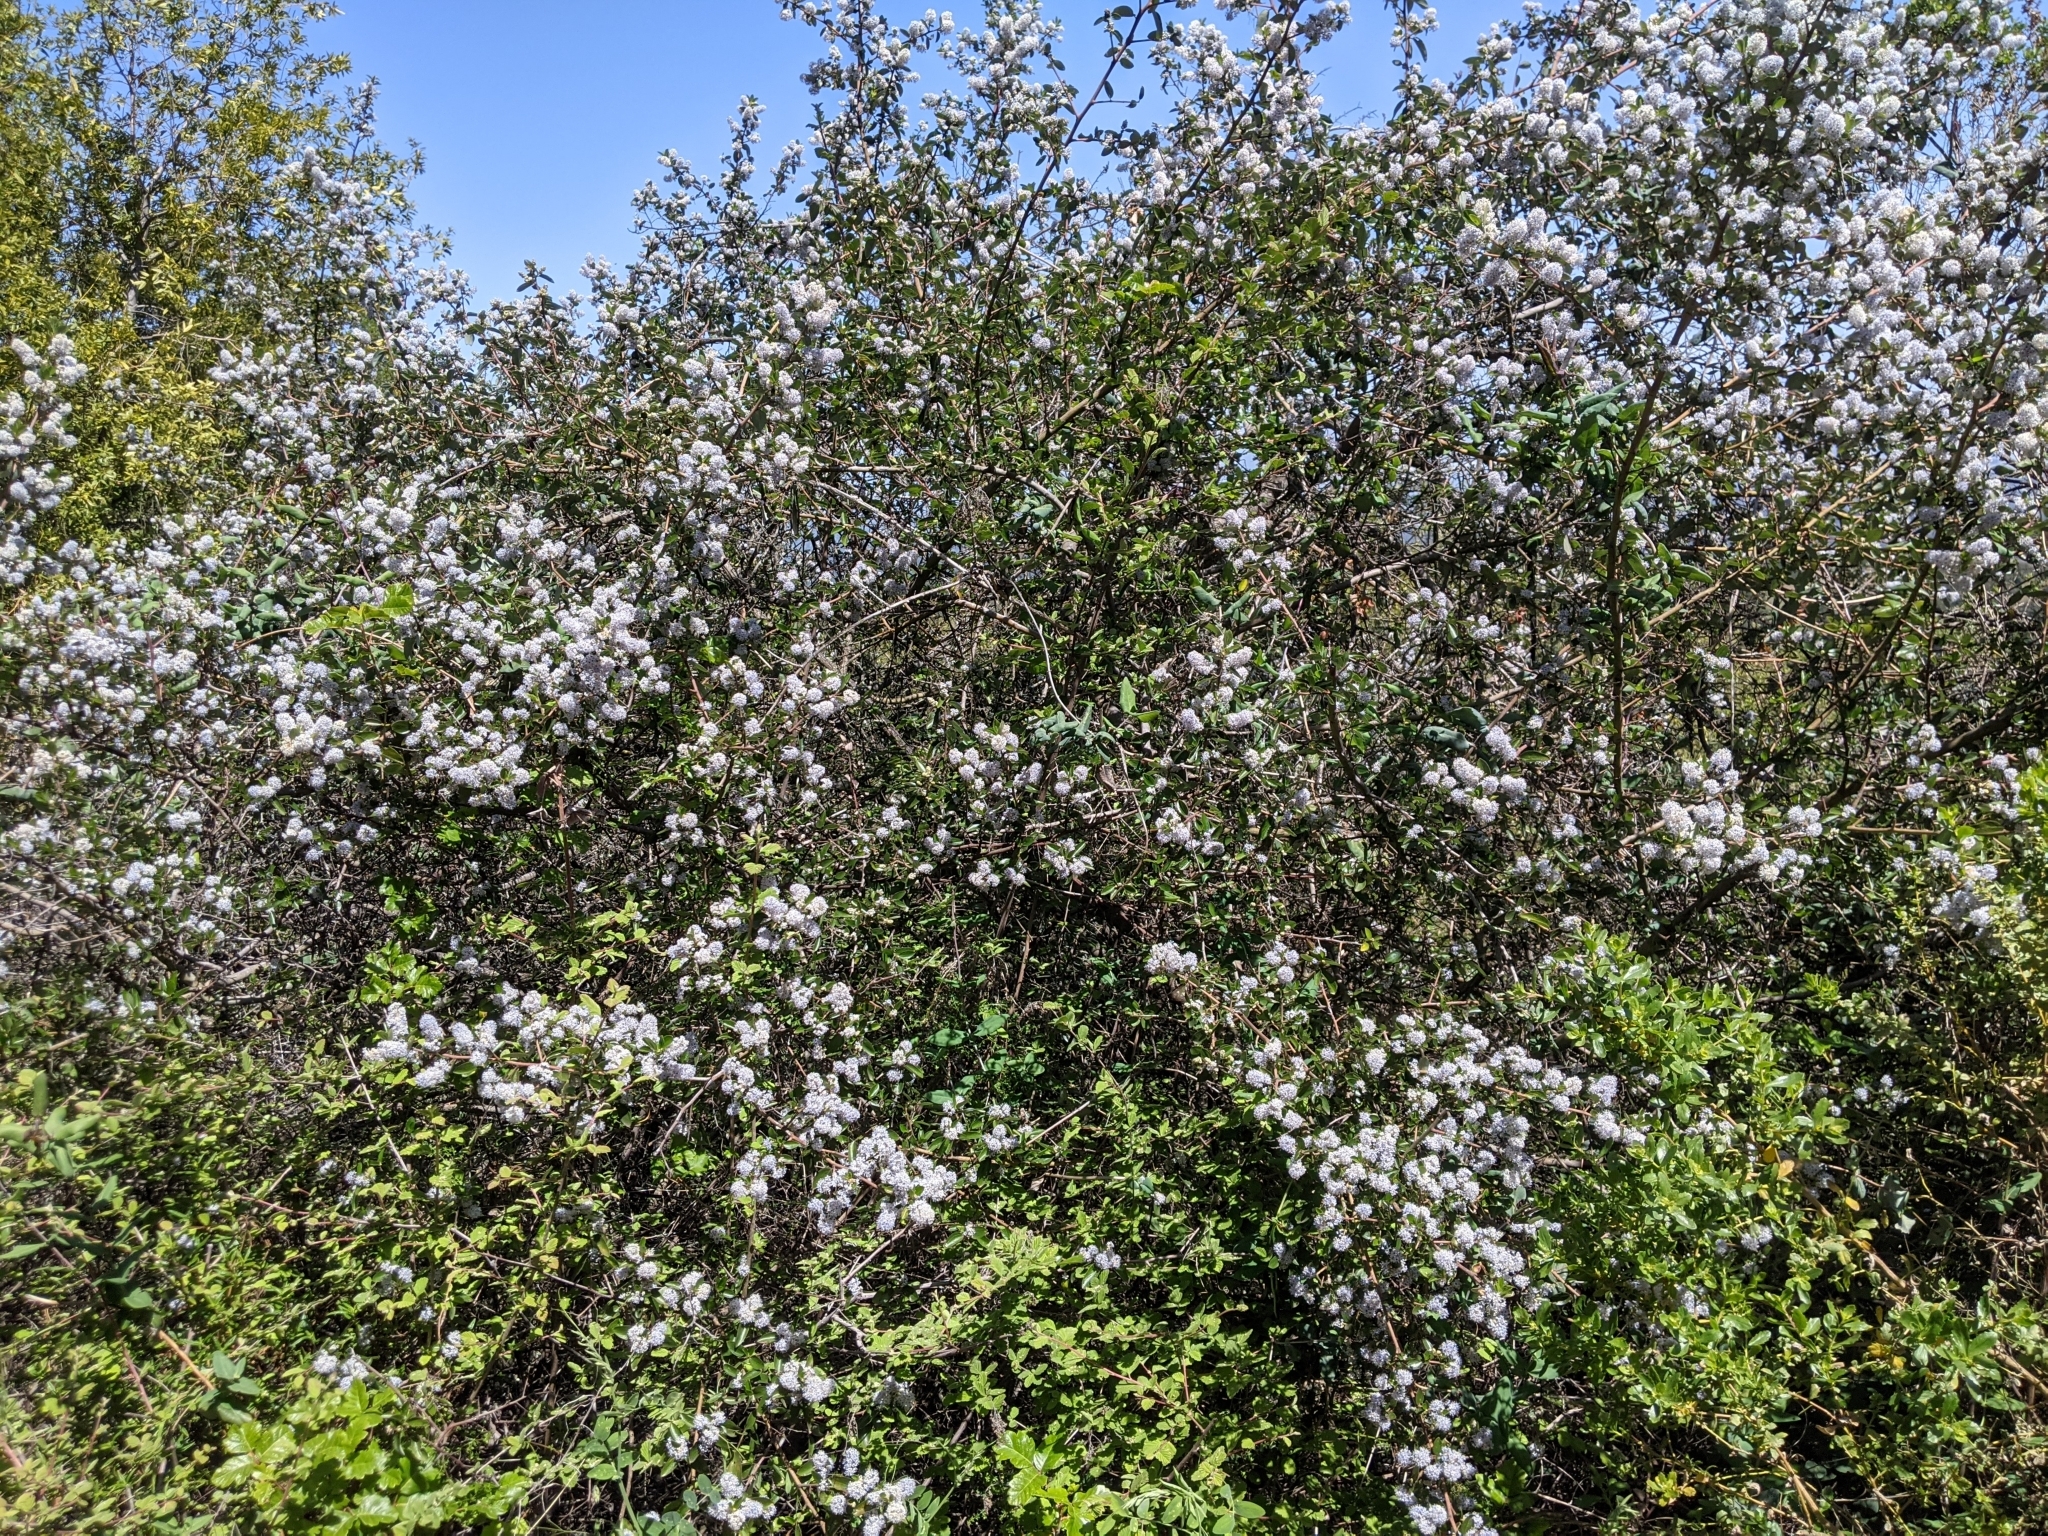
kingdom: Plantae
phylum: Tracheophyta
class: Magnoliopsida
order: Rosales
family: Rhamnaceae
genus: Ceanothus
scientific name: Ceanothus oliganthus
